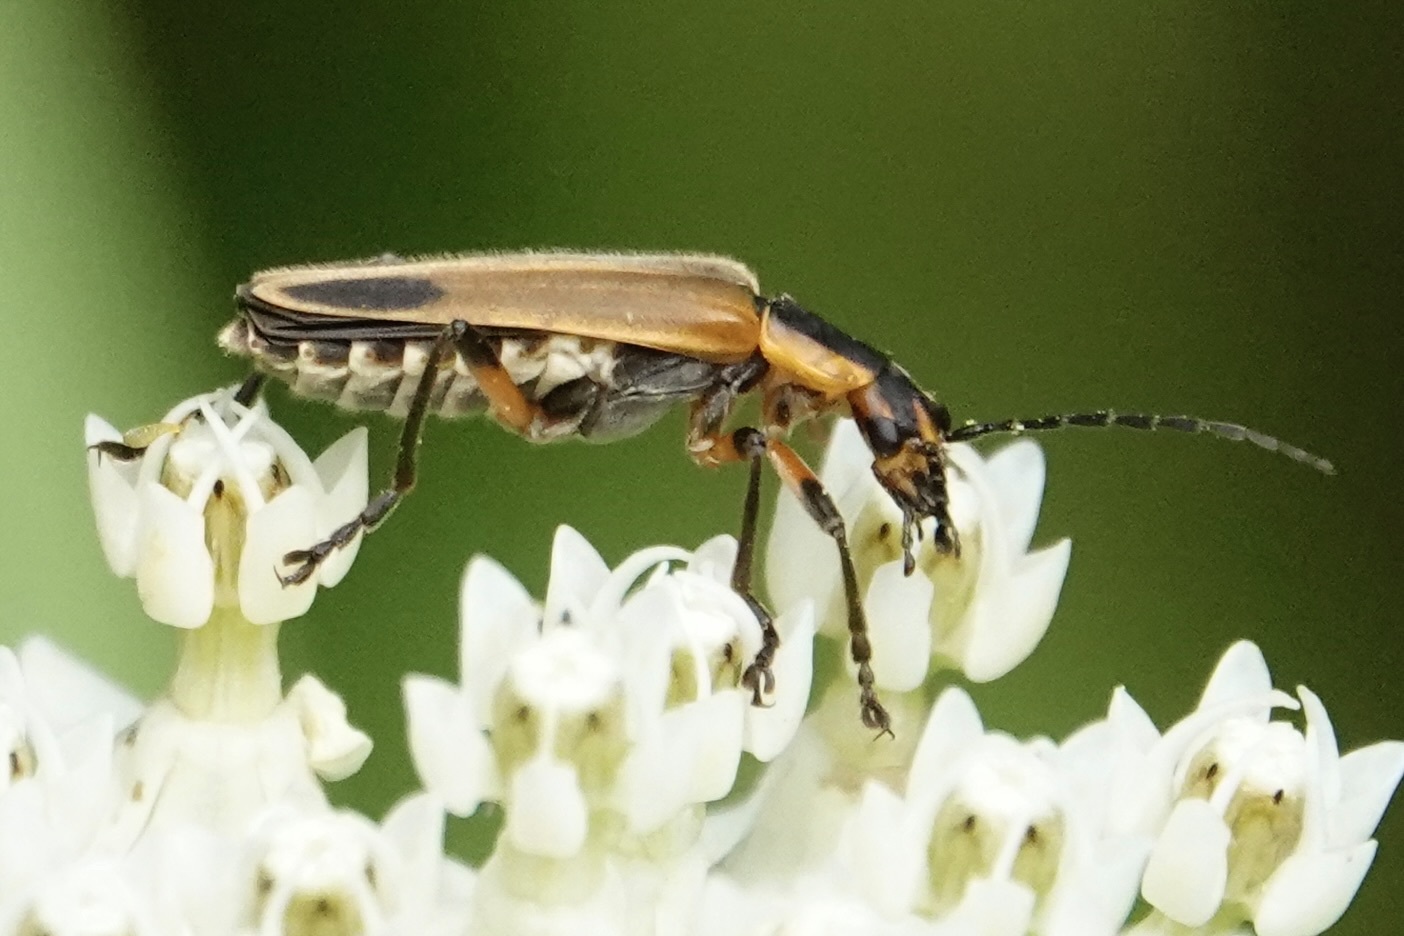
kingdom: Animalia
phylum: Arthropoda
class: Insecta
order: Coleoptera
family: Cantharidae
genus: Chauliognathus
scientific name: Chauliognathus marginatus
